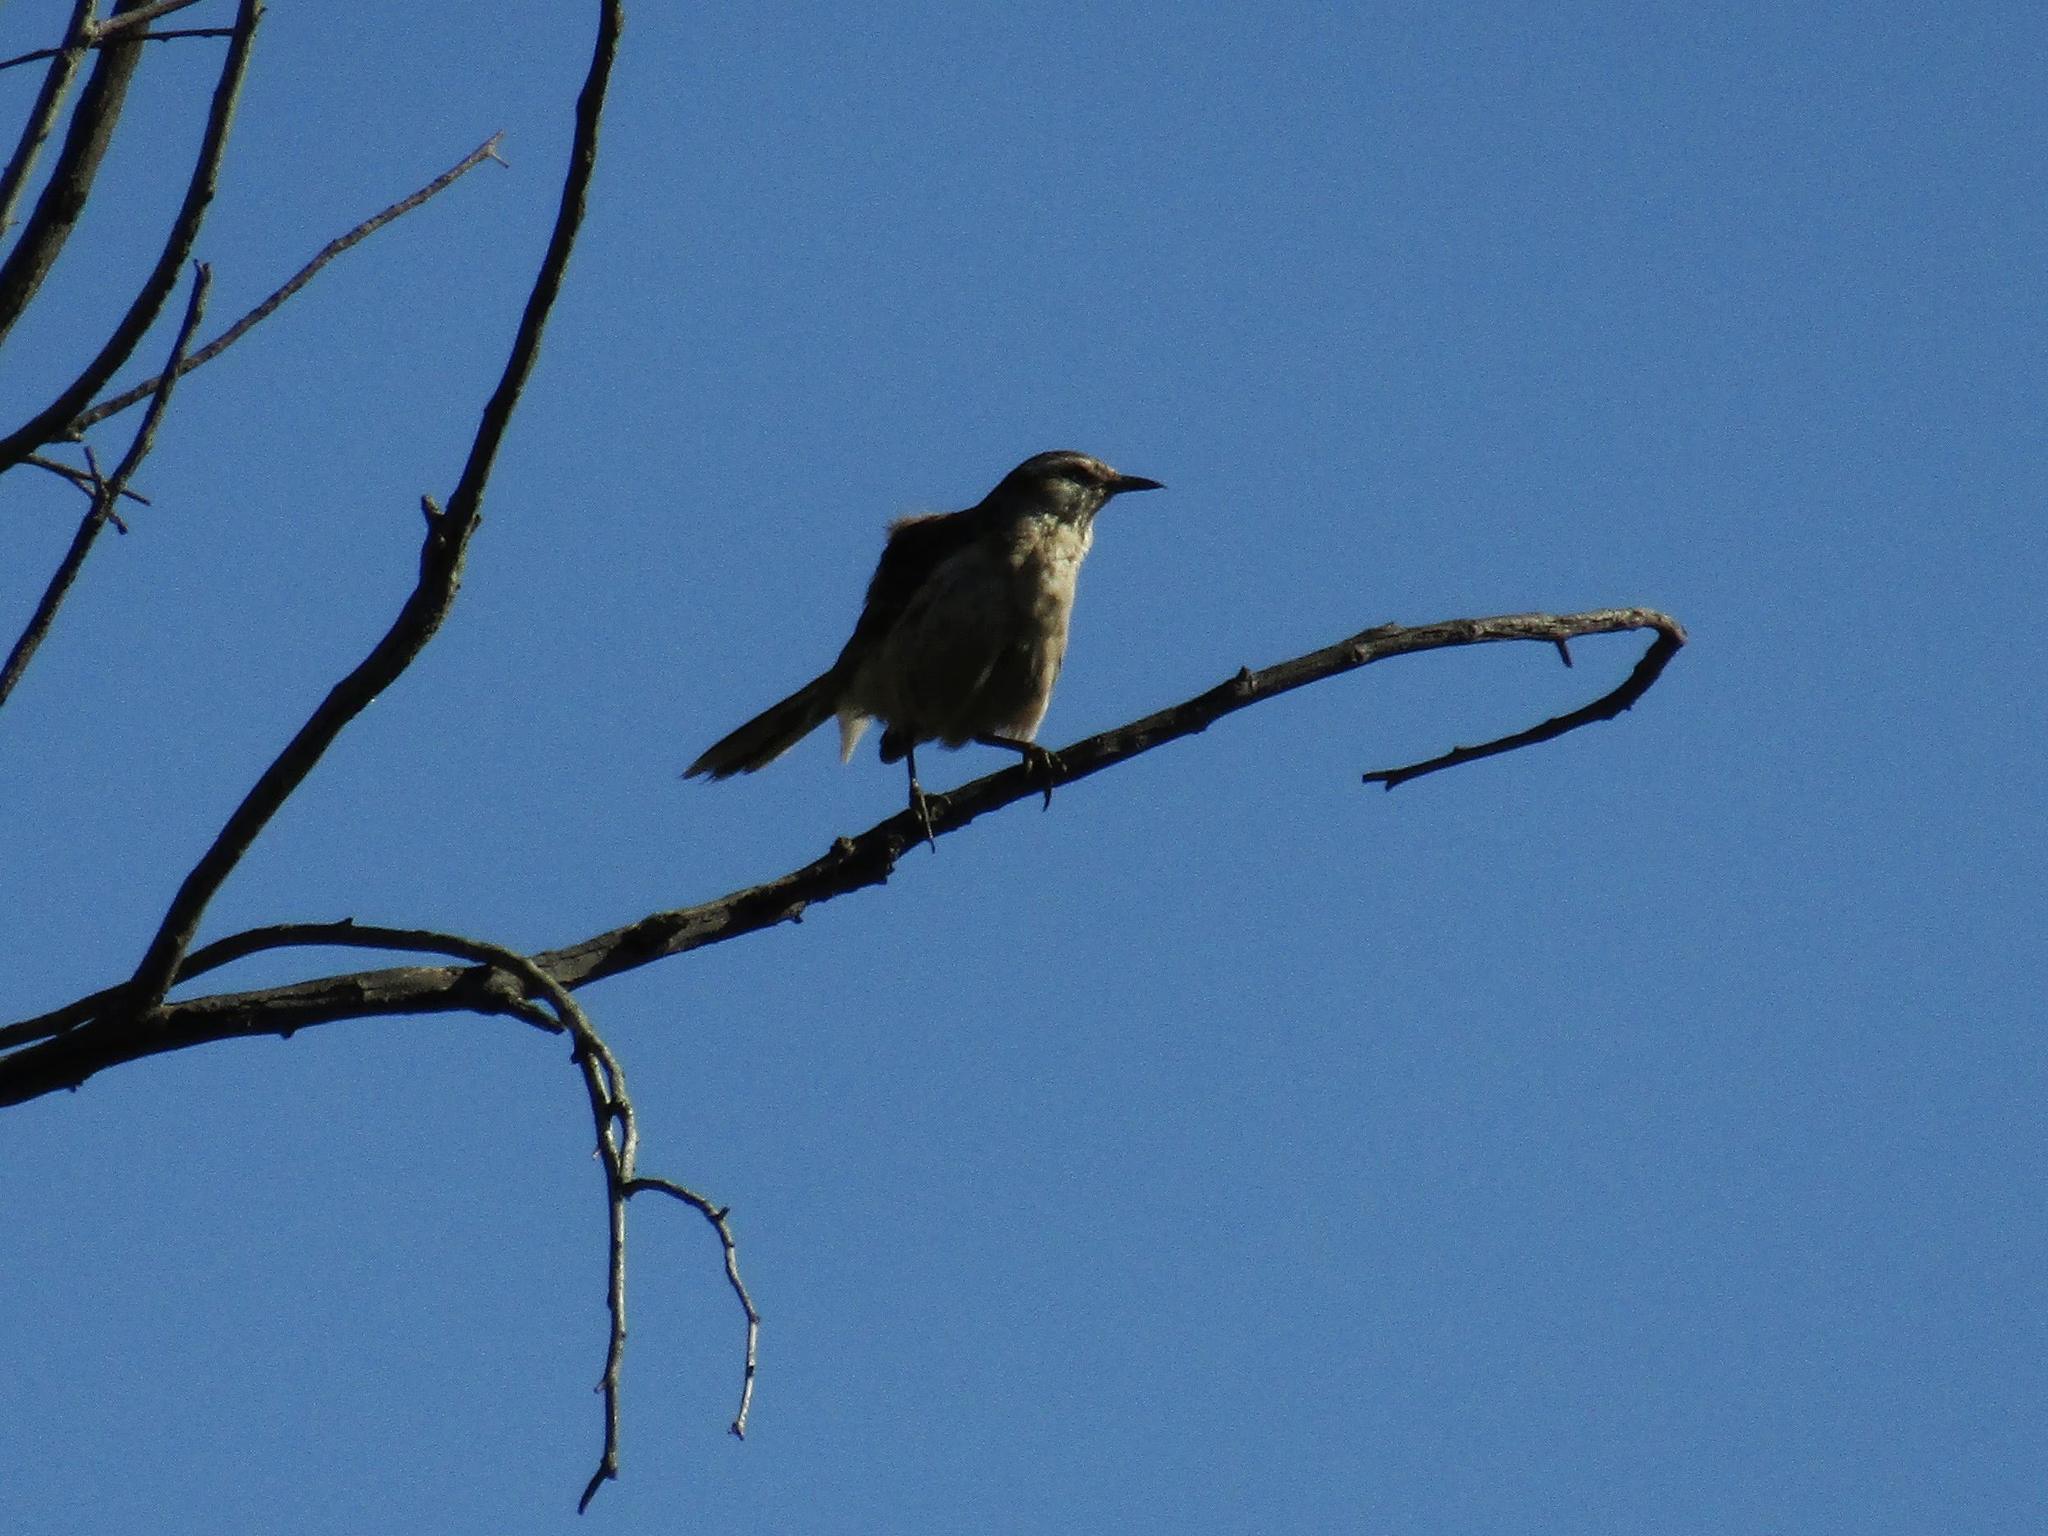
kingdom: Animalia
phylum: Chordata
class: Aves
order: Passeriformes
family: Mimidae
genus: Mimus
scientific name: Mimus saturninus
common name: Chalk-browed mockingbird
